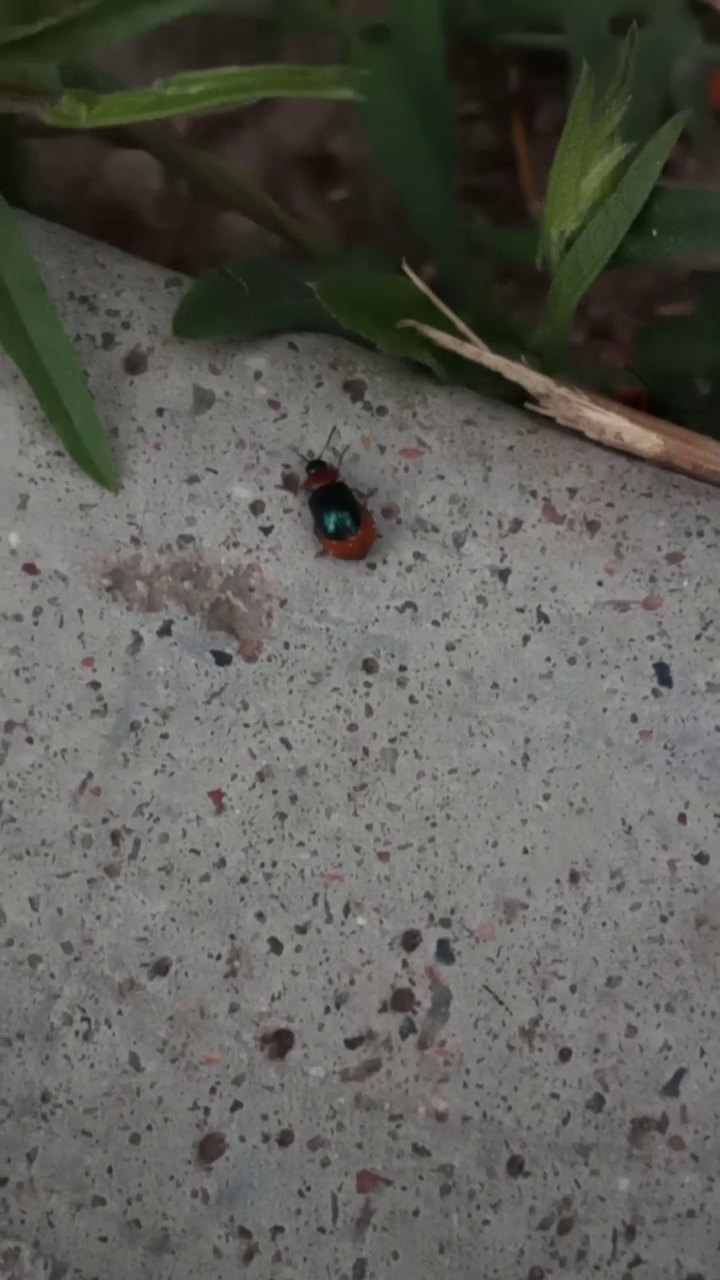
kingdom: Animalia
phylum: Arthropoda
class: Insecta
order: Coleoptera
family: Chrysomelidae
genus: Gastrophysa
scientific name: Gastrophysa polygoni
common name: Knotweed leaf beetle
